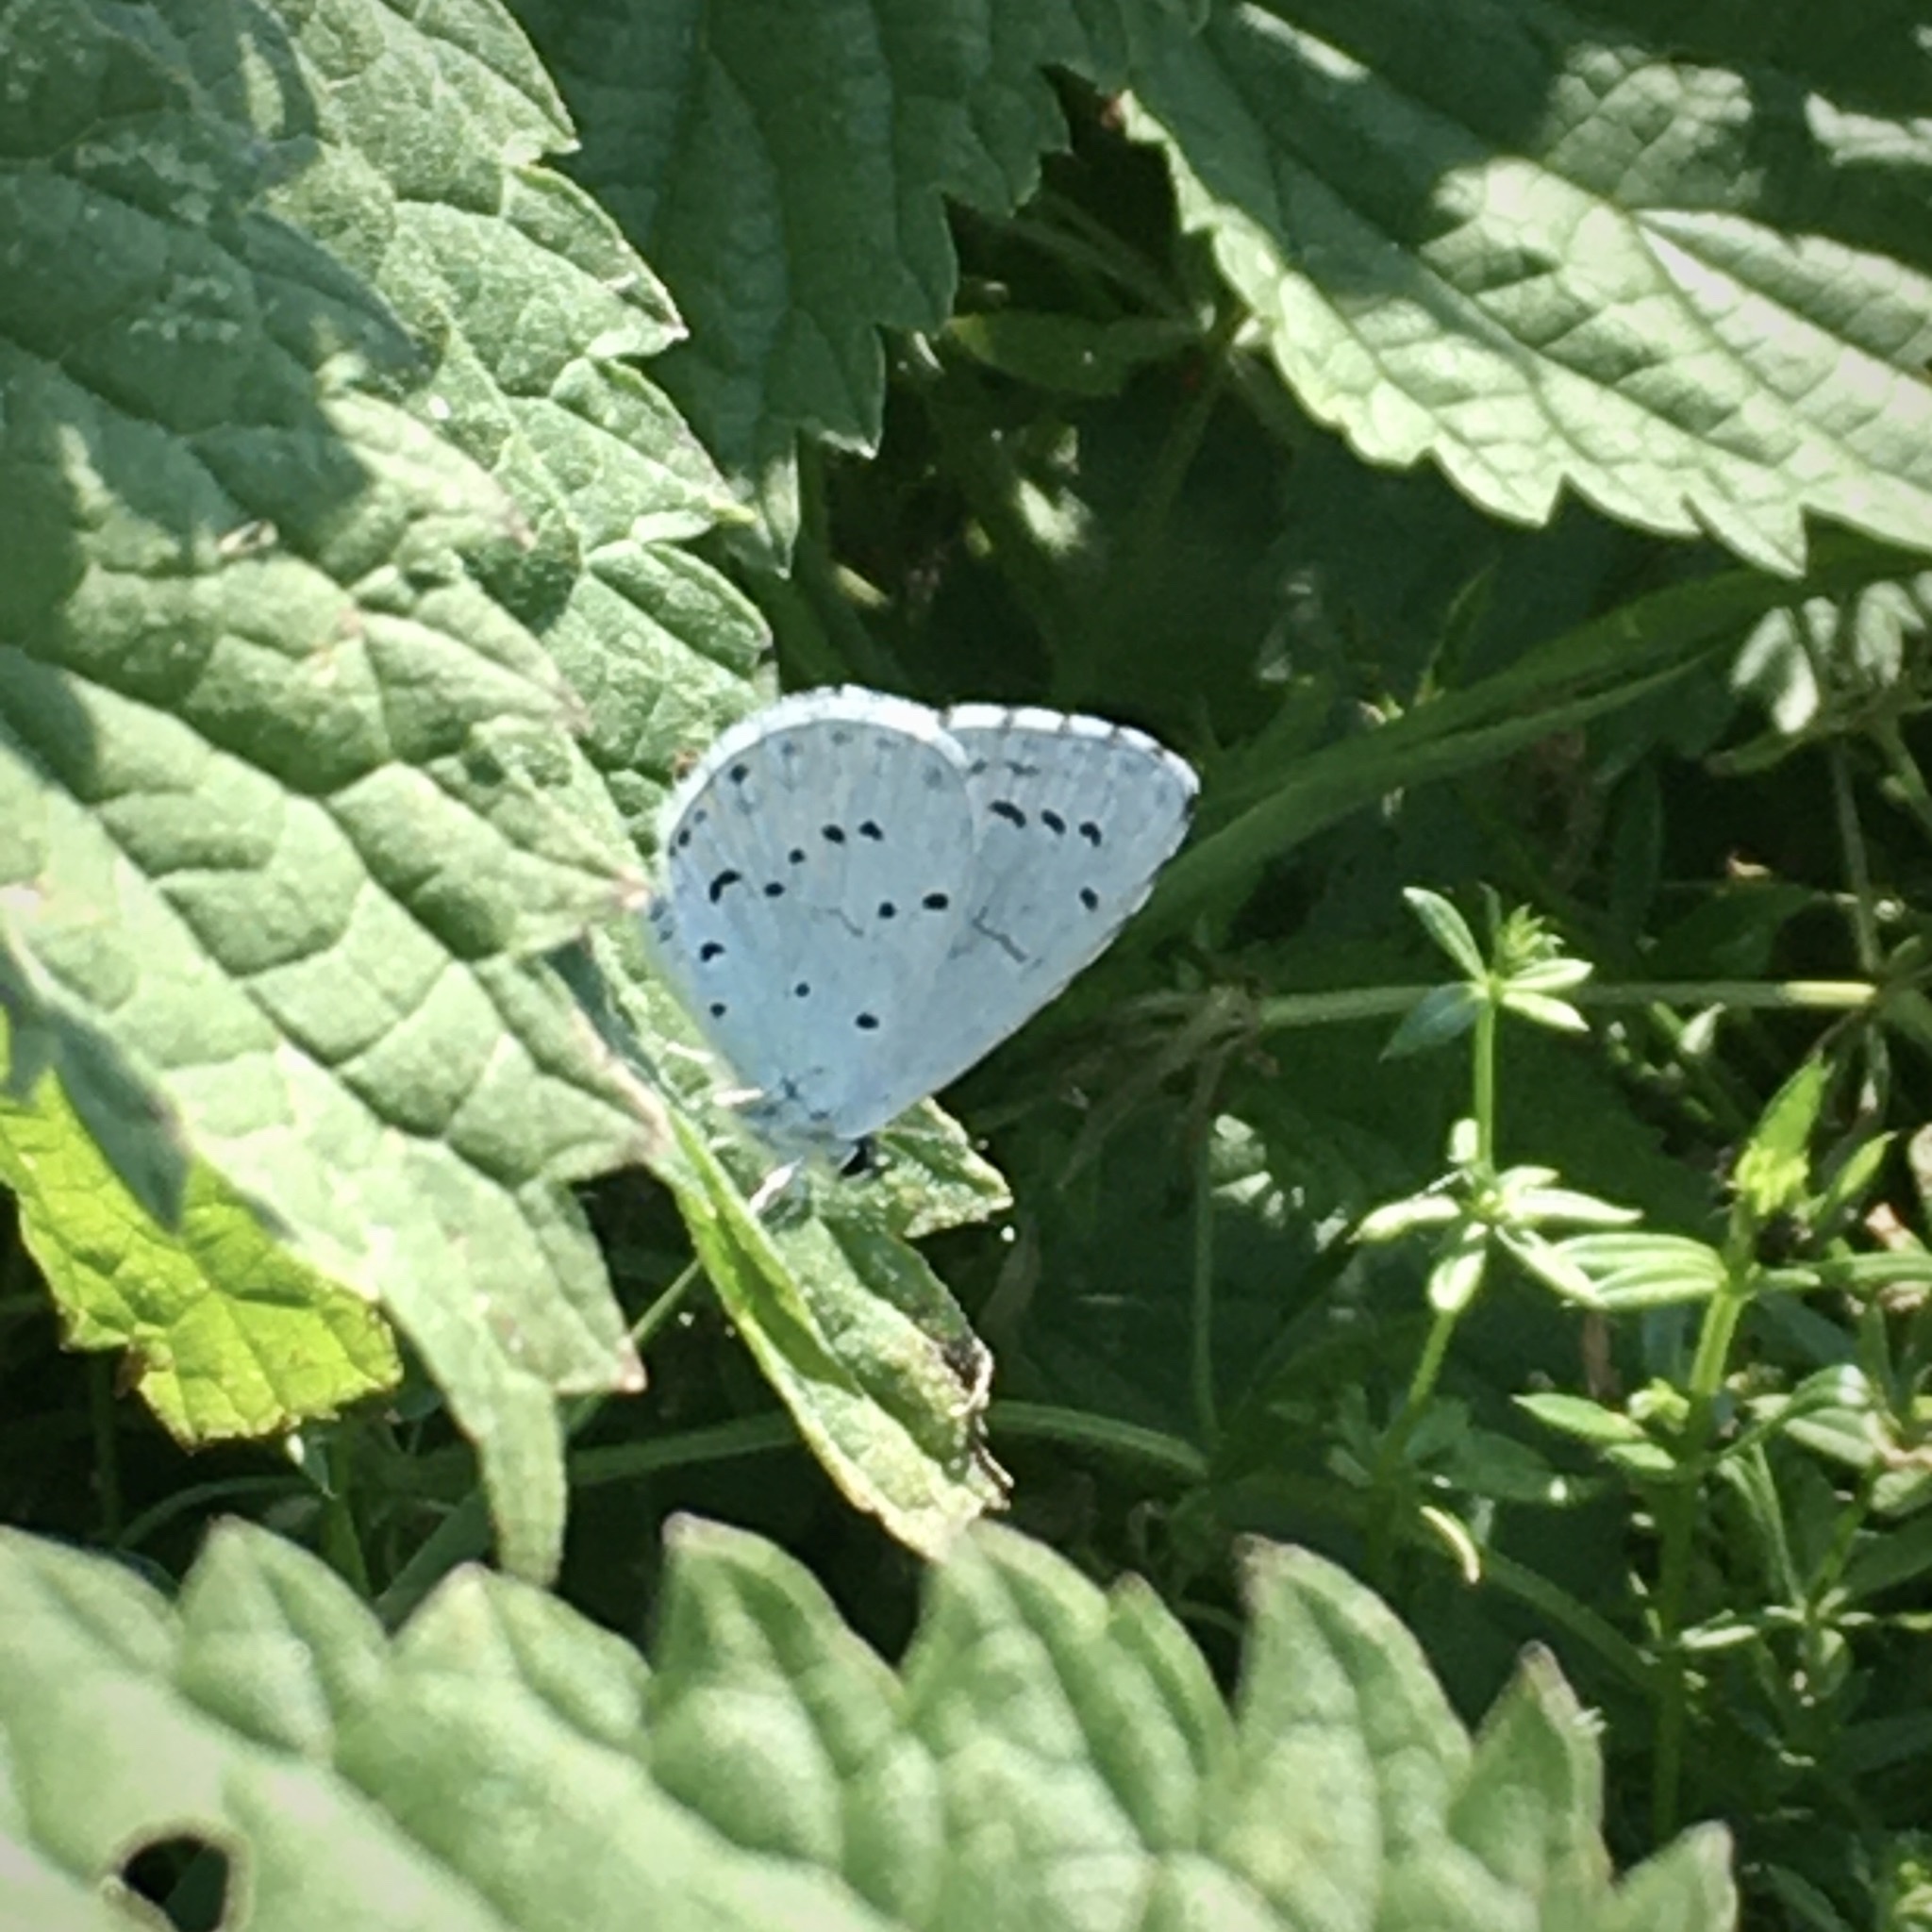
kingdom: Animalia
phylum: Arthropoda
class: Insecta
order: Lepidoptera
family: Lycaenidae
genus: Celastrina
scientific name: Celastrina argiolus
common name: Holly blue
